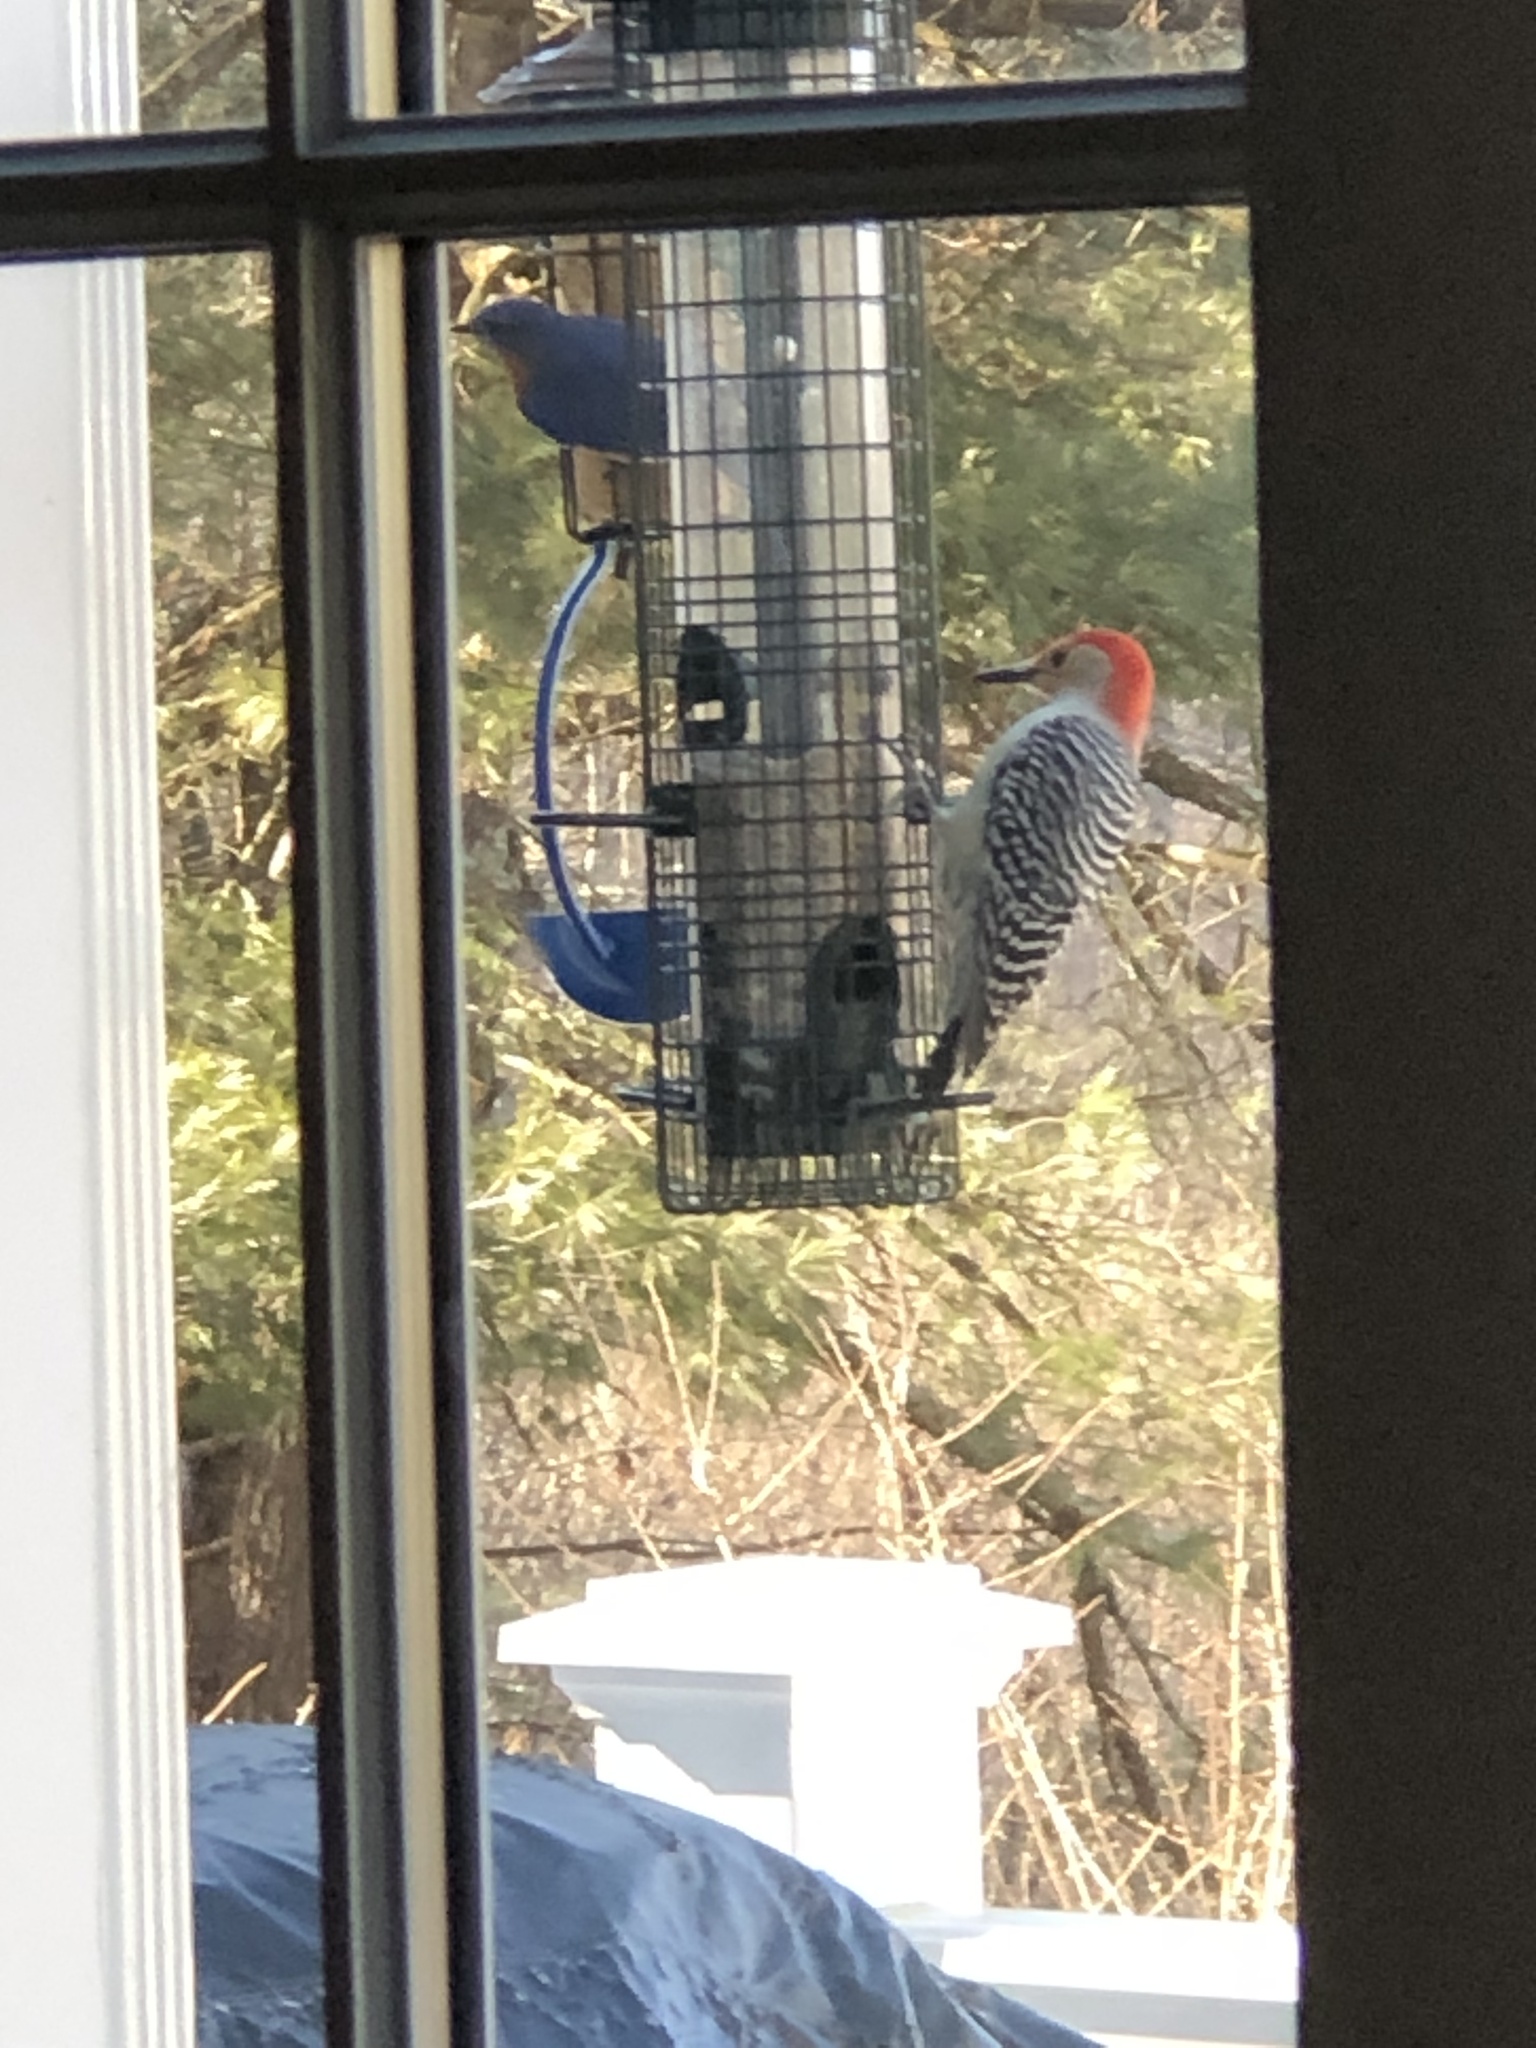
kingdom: Animalia
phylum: Chordata
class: Aves
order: Piciformes
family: Picidae
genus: Melanerpes
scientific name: Melanerpes carolinus
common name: Red-bellied woodpecker
